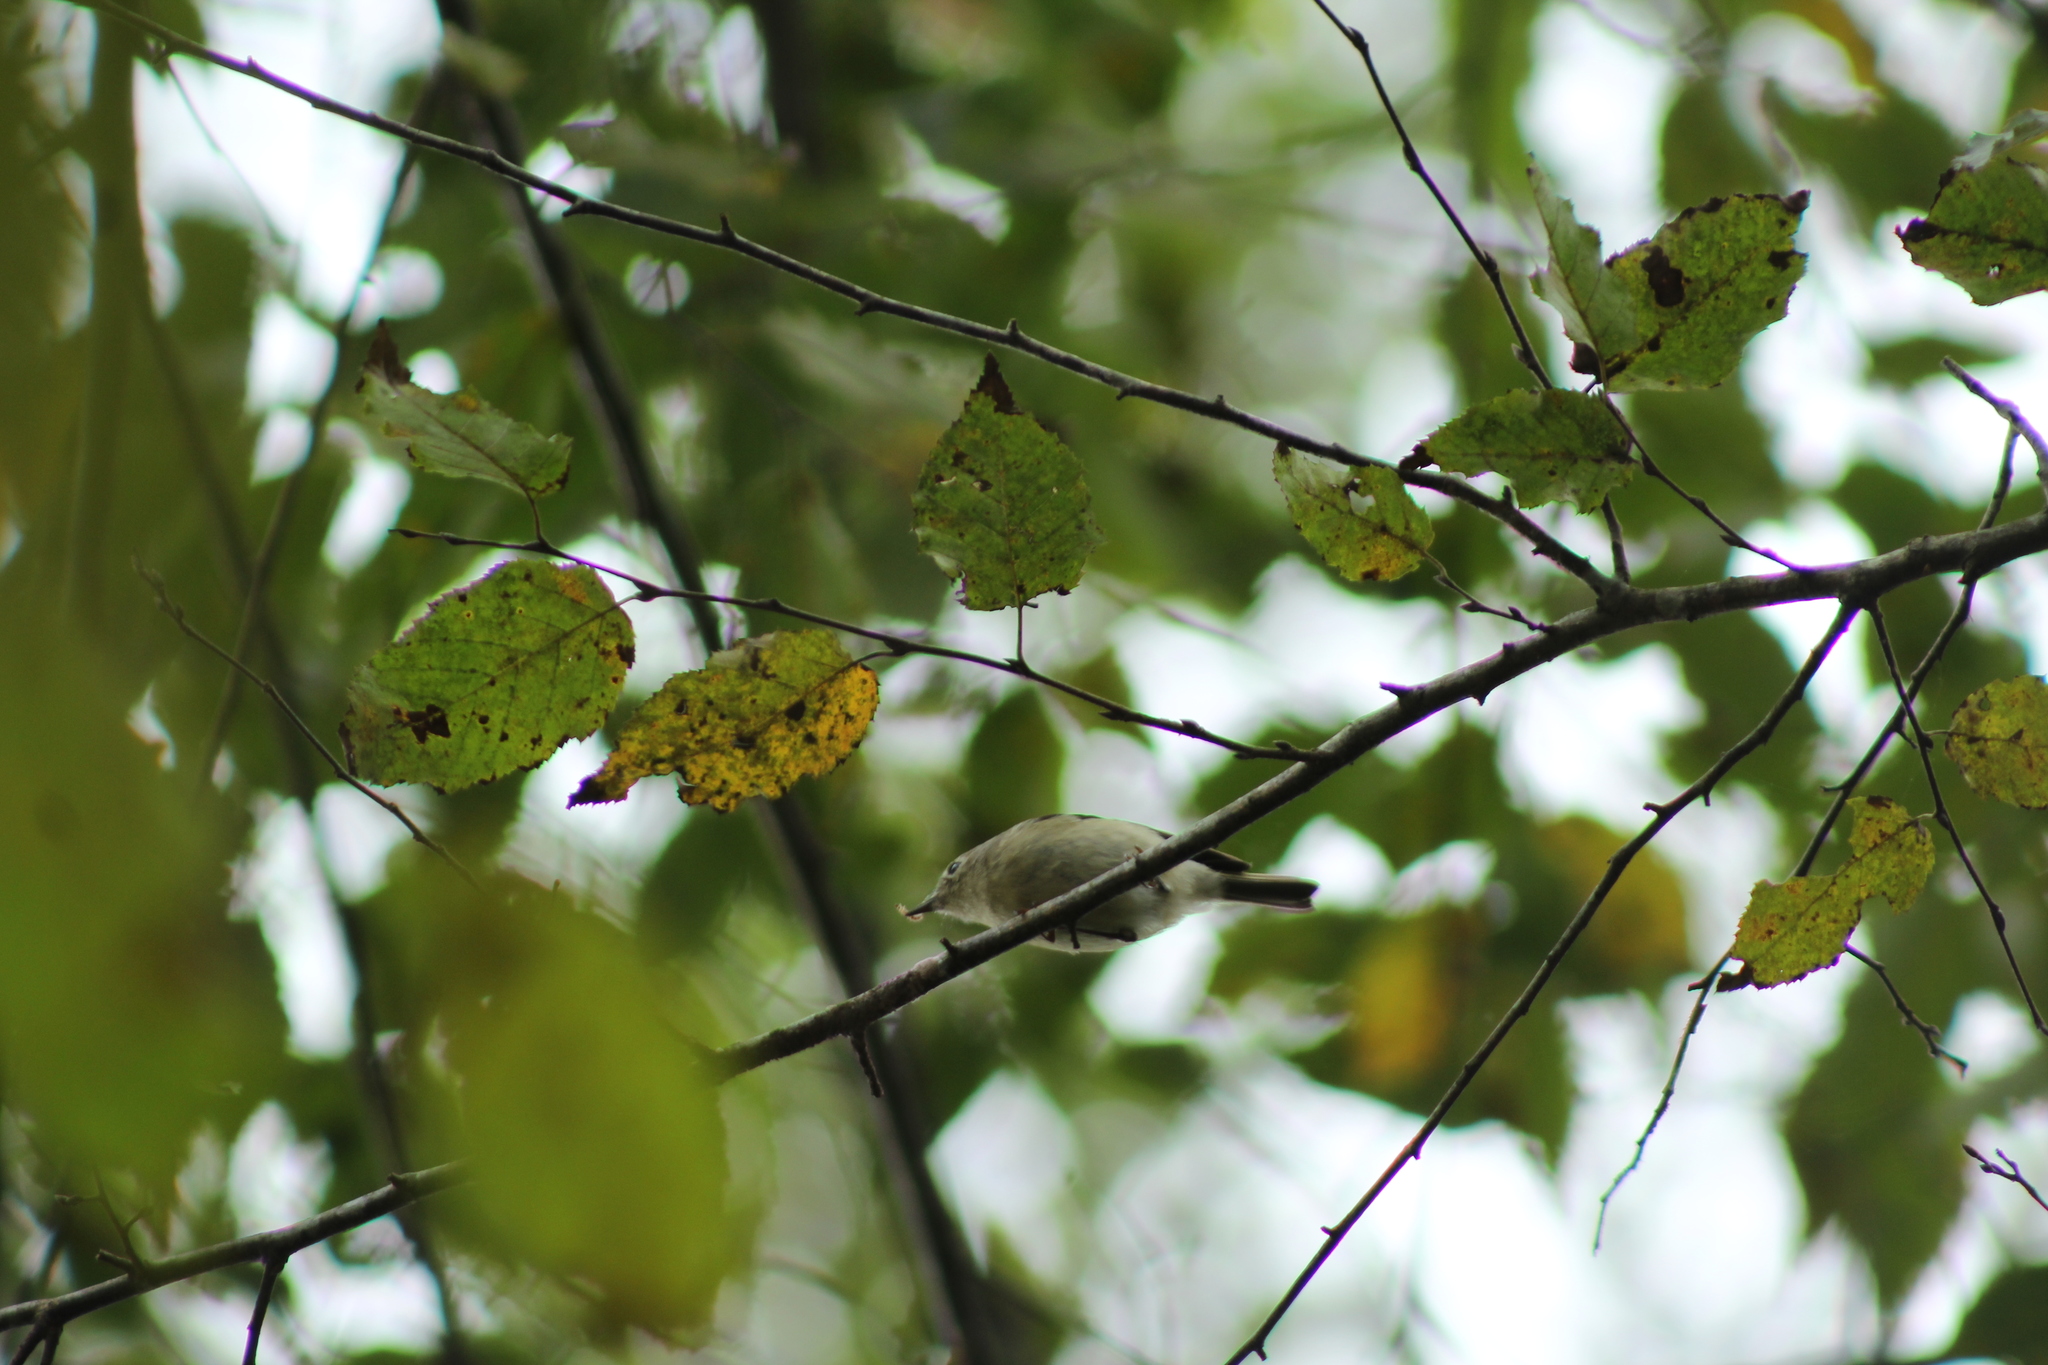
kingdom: Animalia
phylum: Chordata
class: Aves
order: Passeriformes
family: Regulidae
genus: Regulus
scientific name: Regulus calendula
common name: Ruby-crowned kinglet
